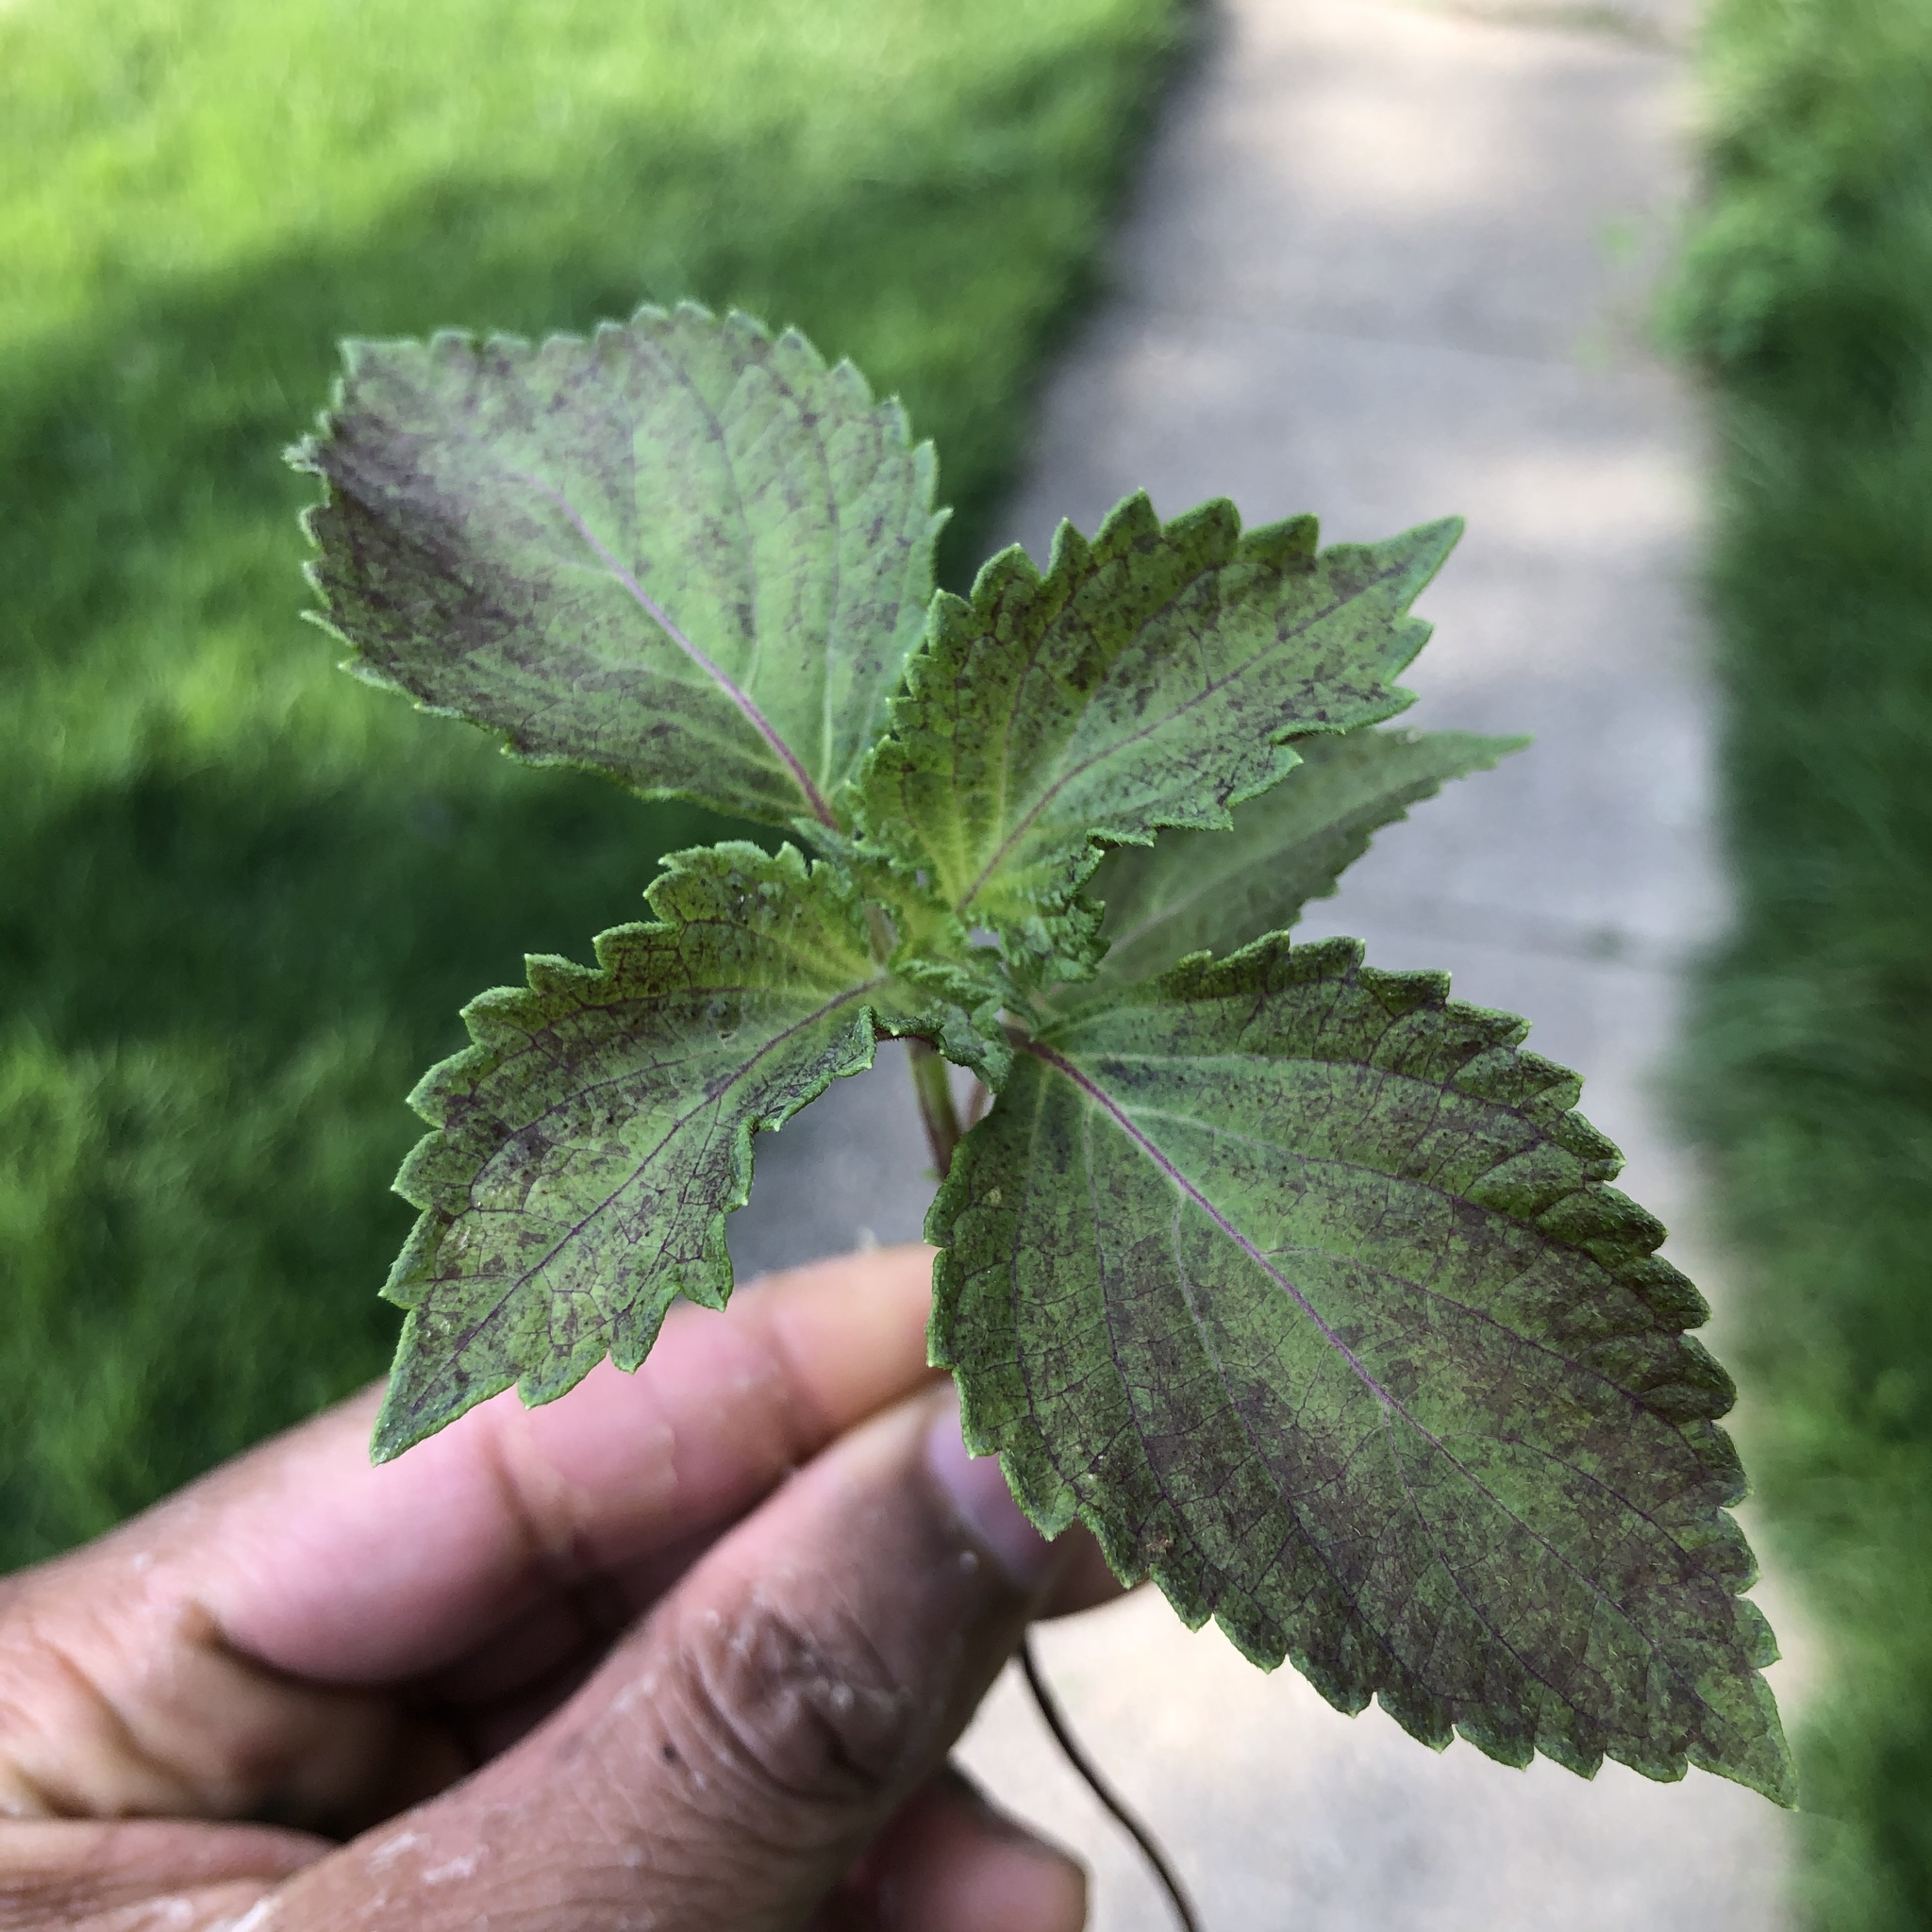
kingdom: Plantae
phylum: Tracheophyta
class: Magnoliopsida
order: Lamiales
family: Lamiaceae
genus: Perilla
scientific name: Perilla frutescens
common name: Perilla
